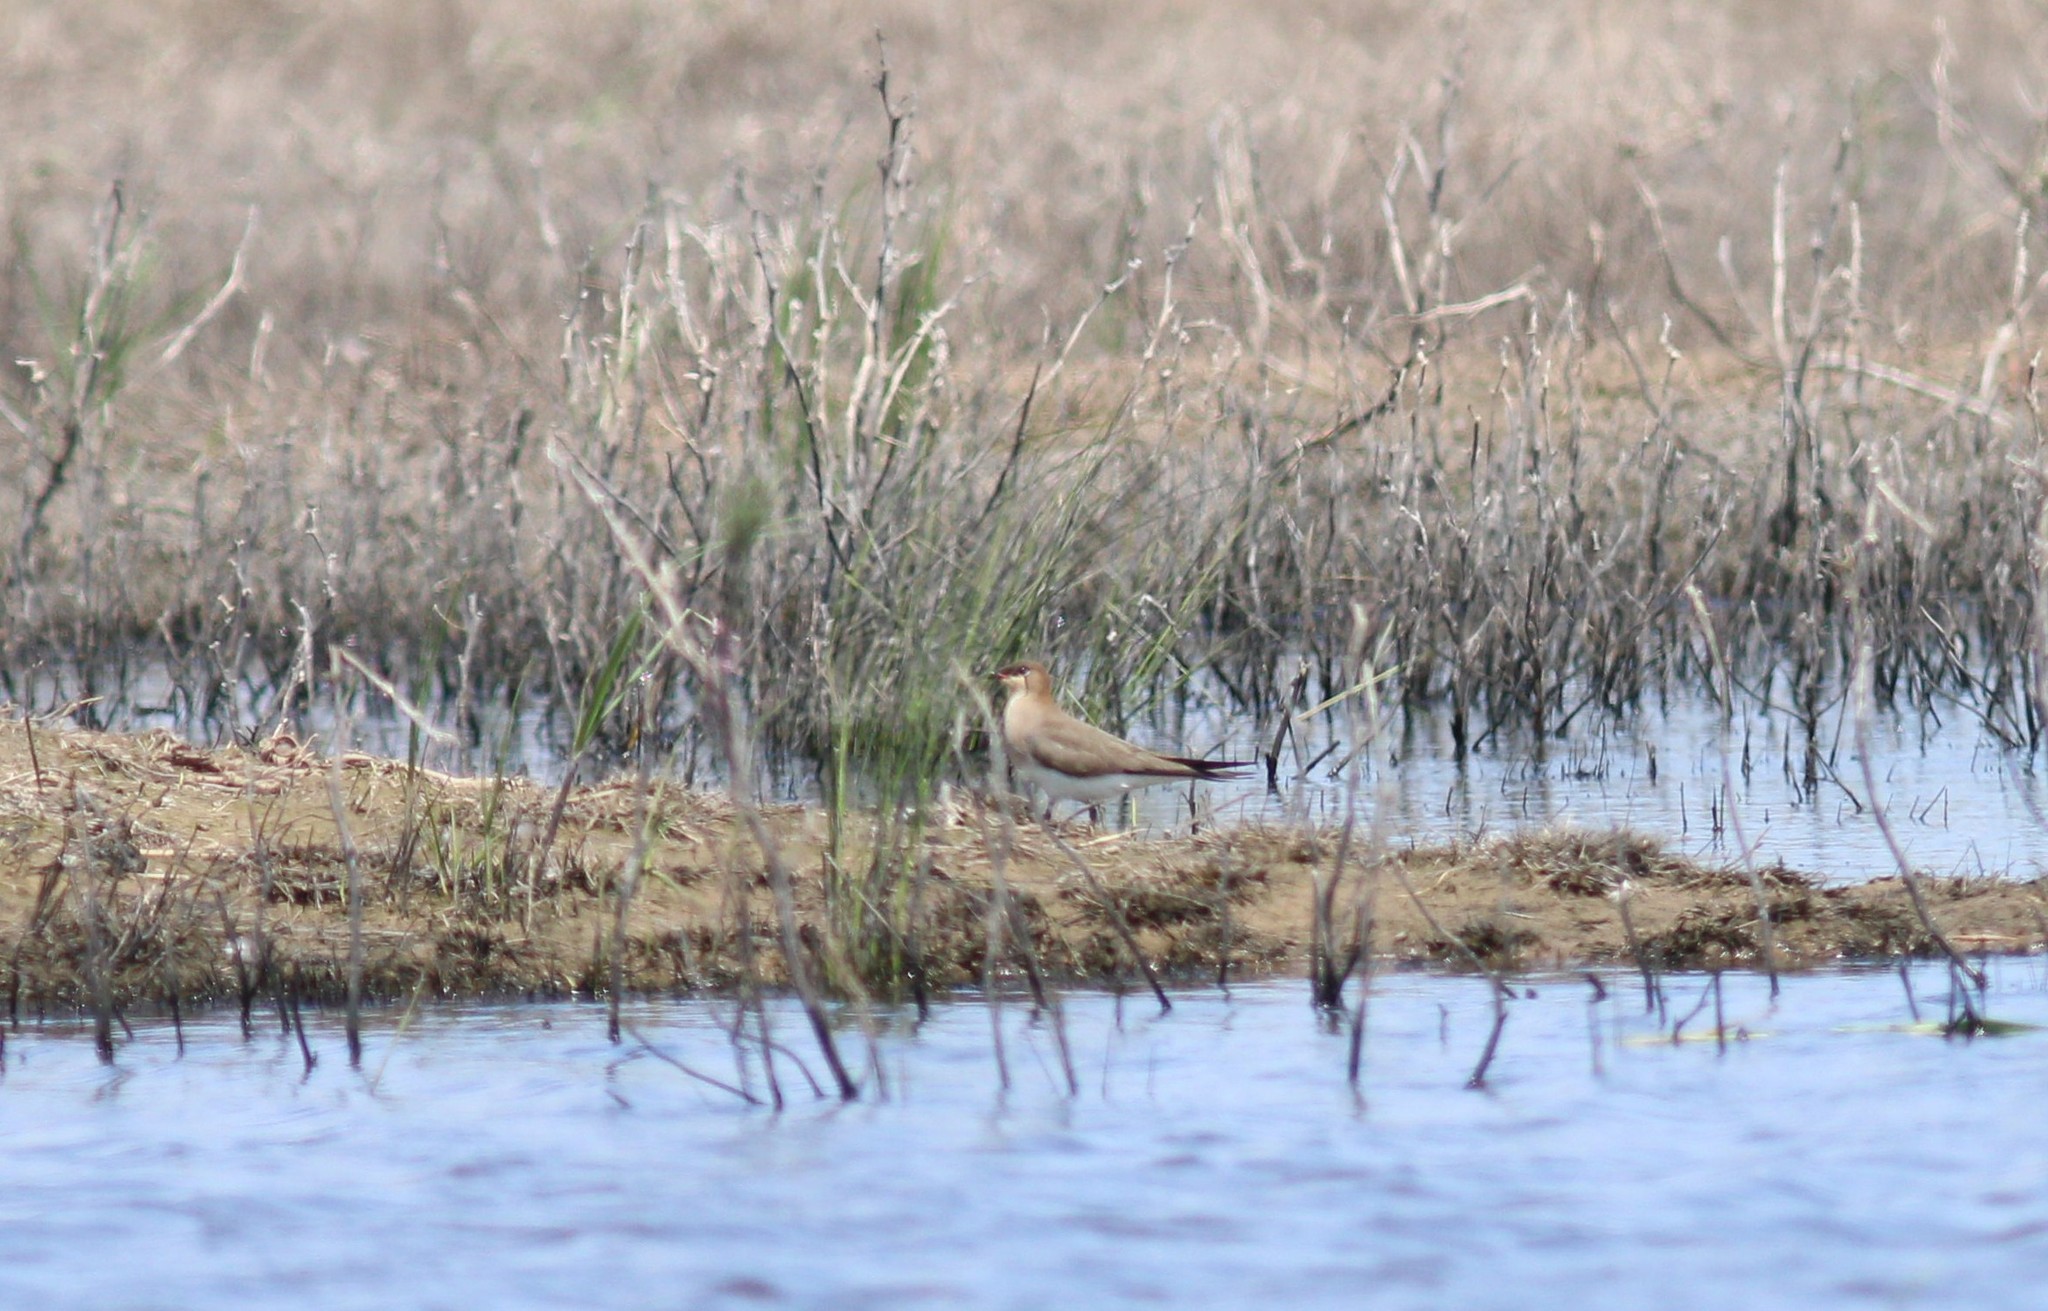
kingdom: Animalia
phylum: Chordata
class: Aves
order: Charadriiformes
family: Glareolidae
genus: Glareola
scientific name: Glareola nordmanni
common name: Black-winged pratincole
